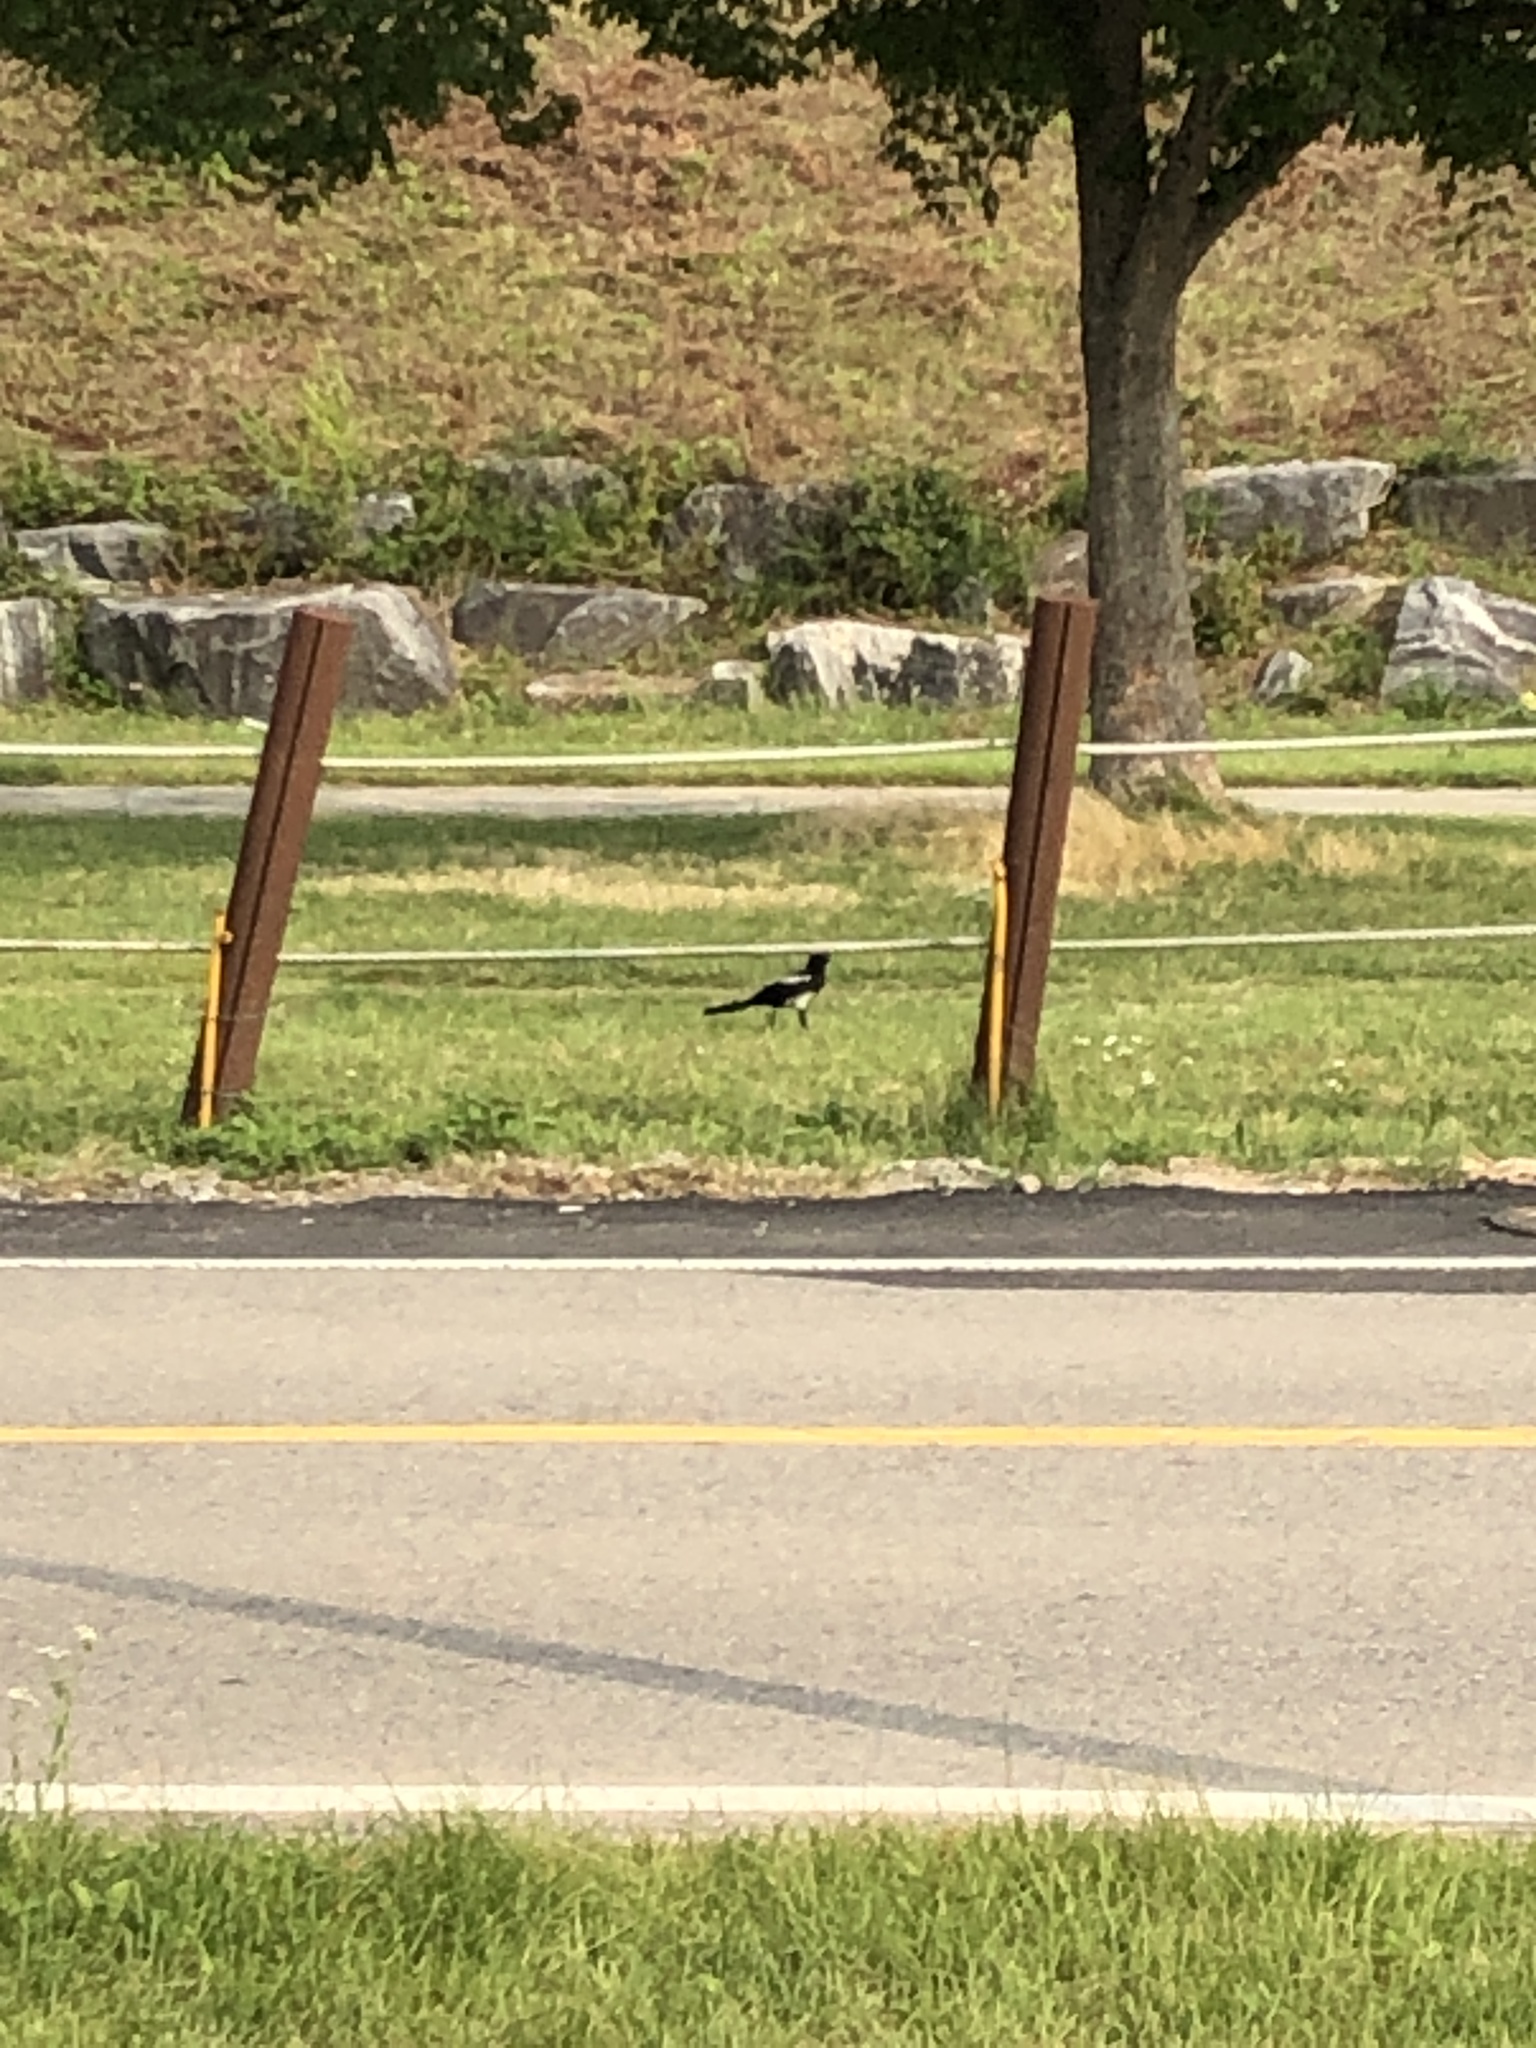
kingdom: Animalia
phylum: Chordata
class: Aves
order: Passeriformes
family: Corvidae
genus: Pica
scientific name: Pica serica
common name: Oriental magpie
